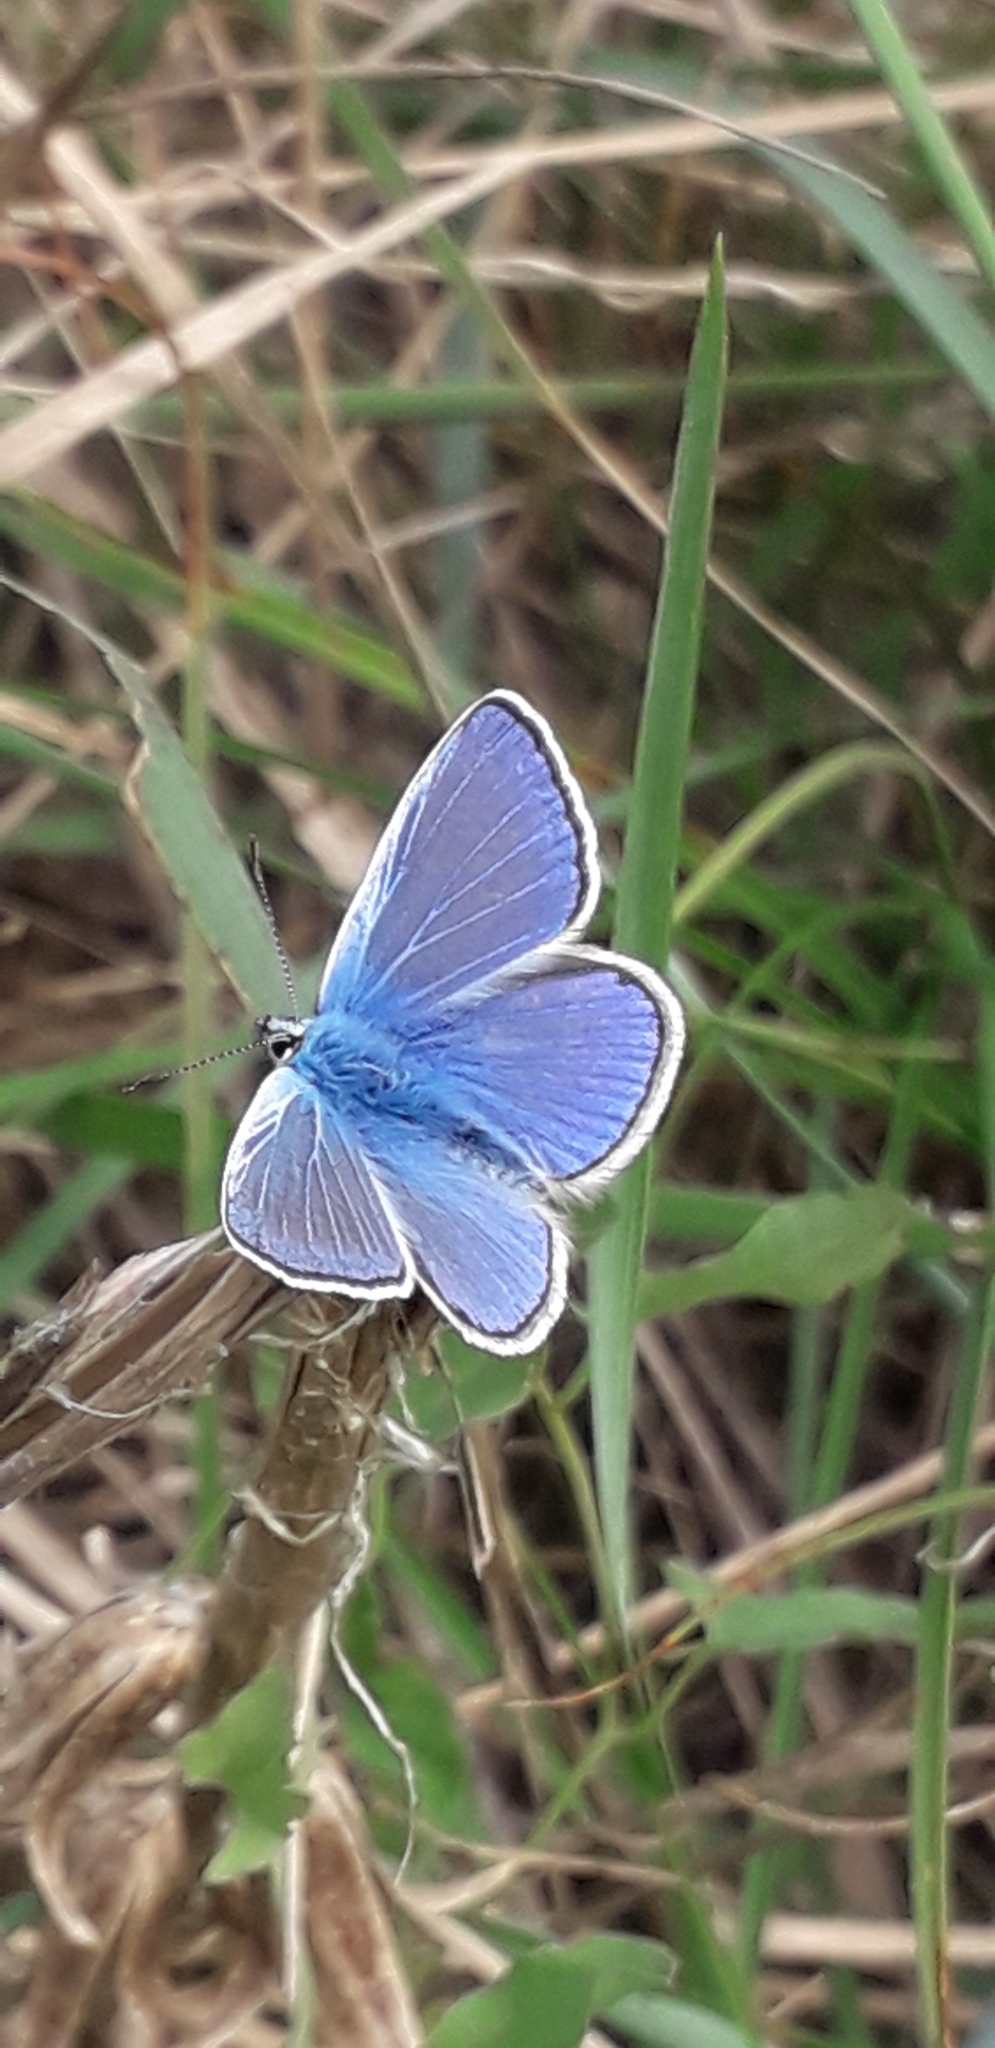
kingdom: Animalia
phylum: Arthropoda
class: Insecta
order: Lepidoptera
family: Lycaenidae
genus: Polyommatus
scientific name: Polyommatus icarus
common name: Common blue
